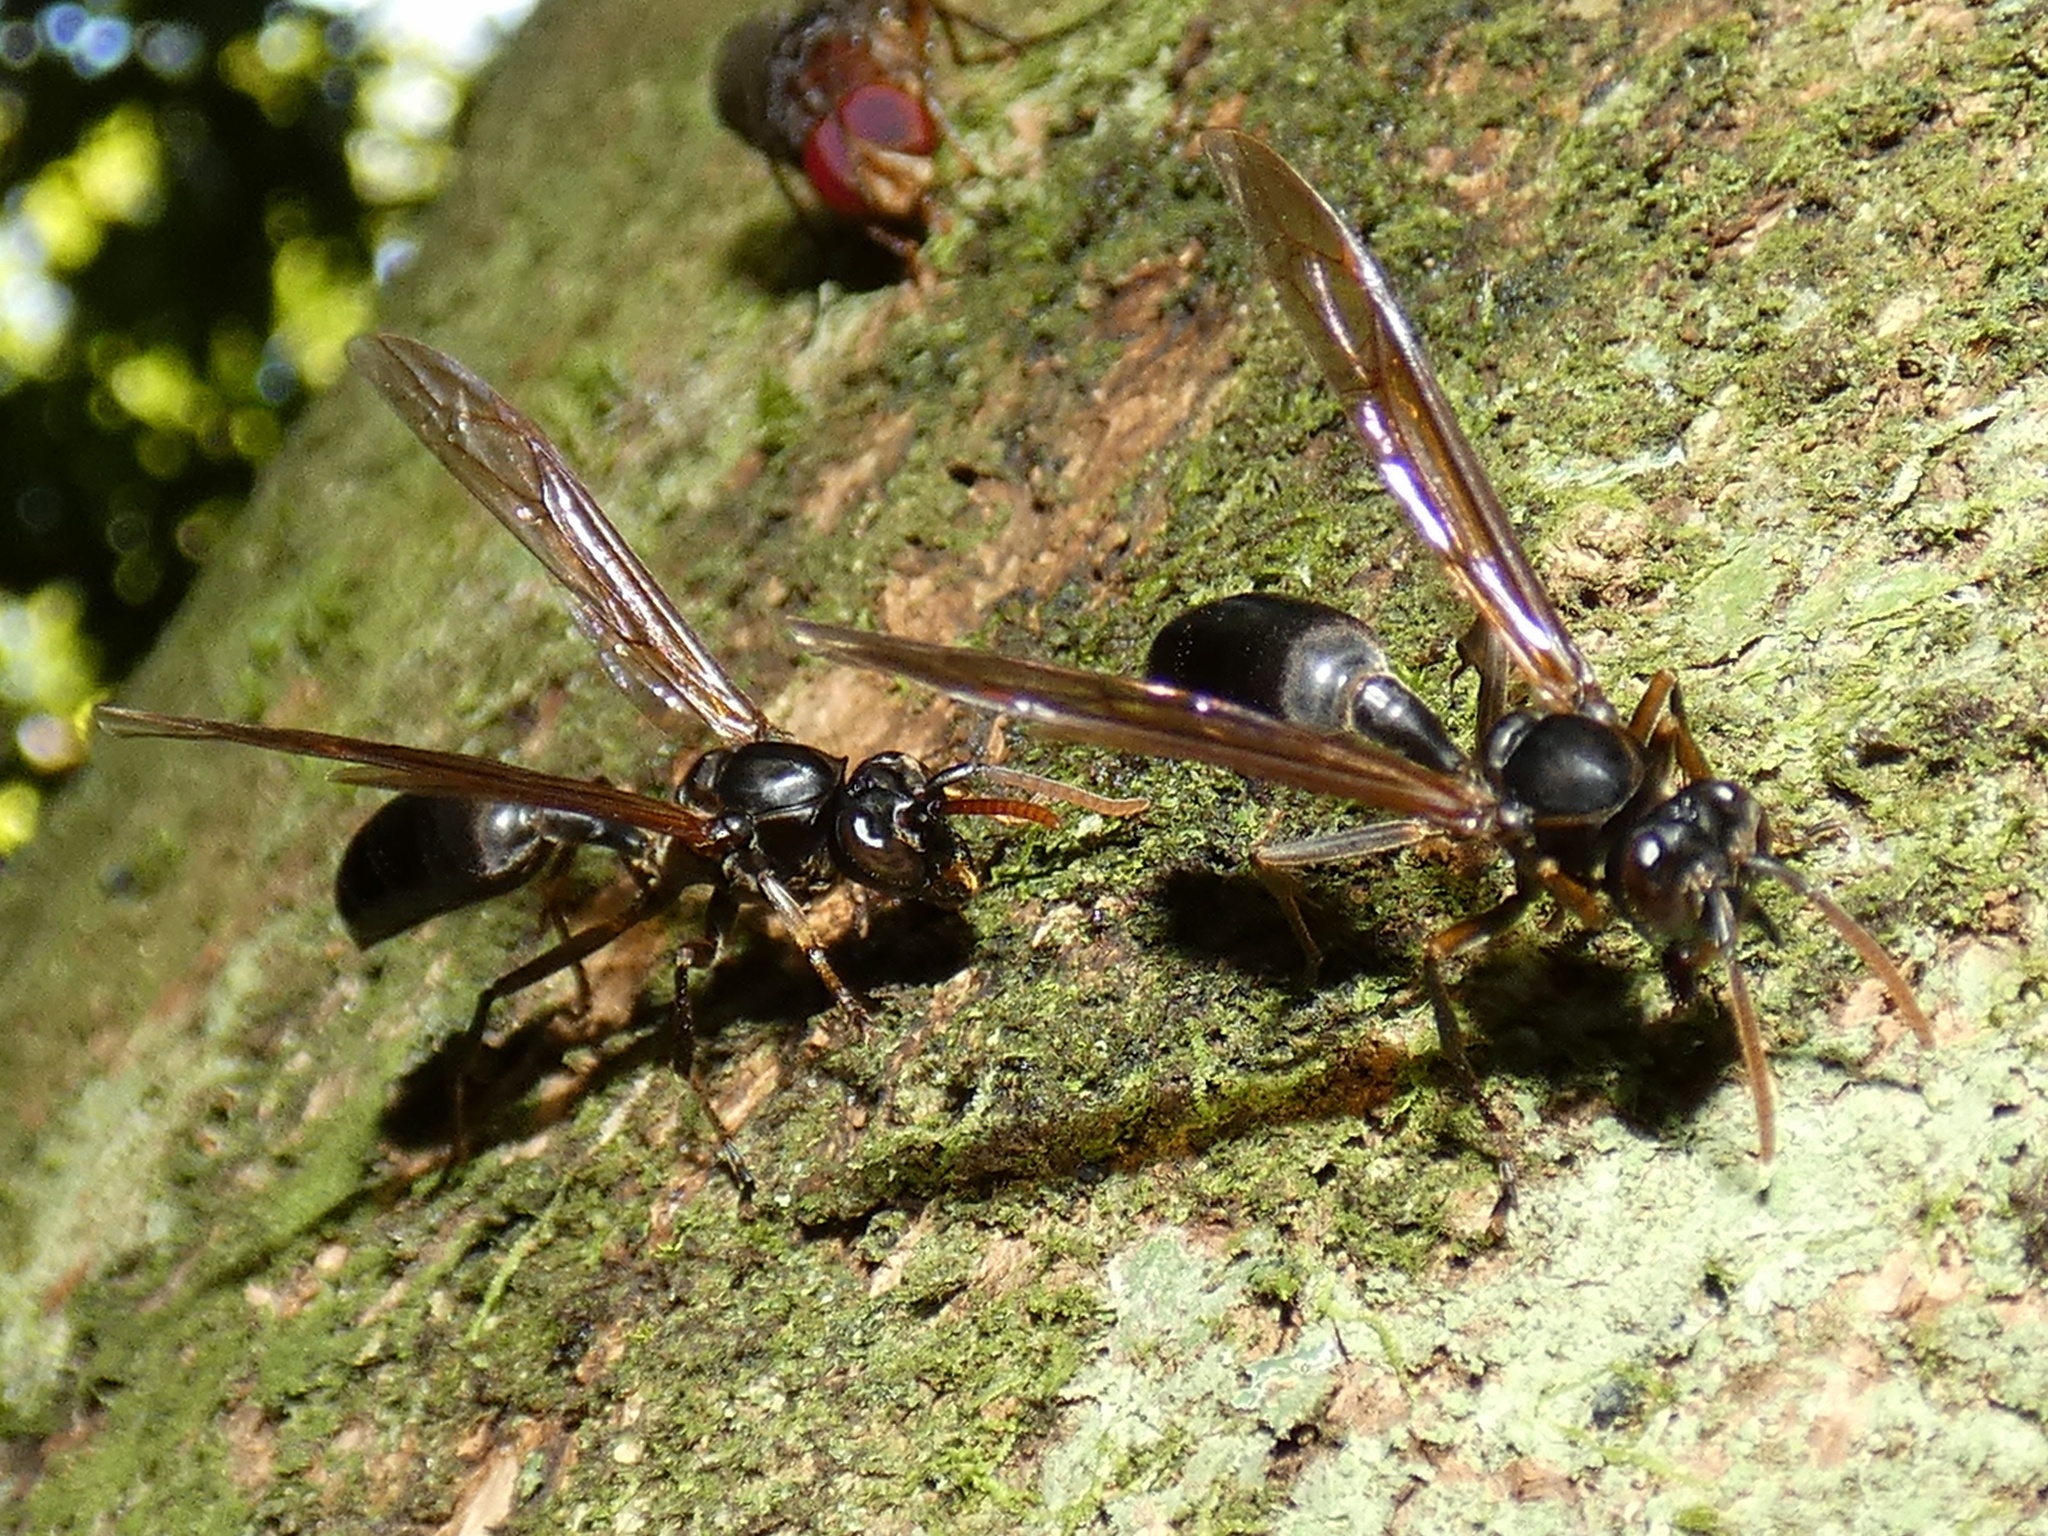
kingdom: Animalia
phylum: Arthropoda
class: Insecta
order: Hymenoptera
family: Vespidae
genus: Agelaia
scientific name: Agelaia panamensis
